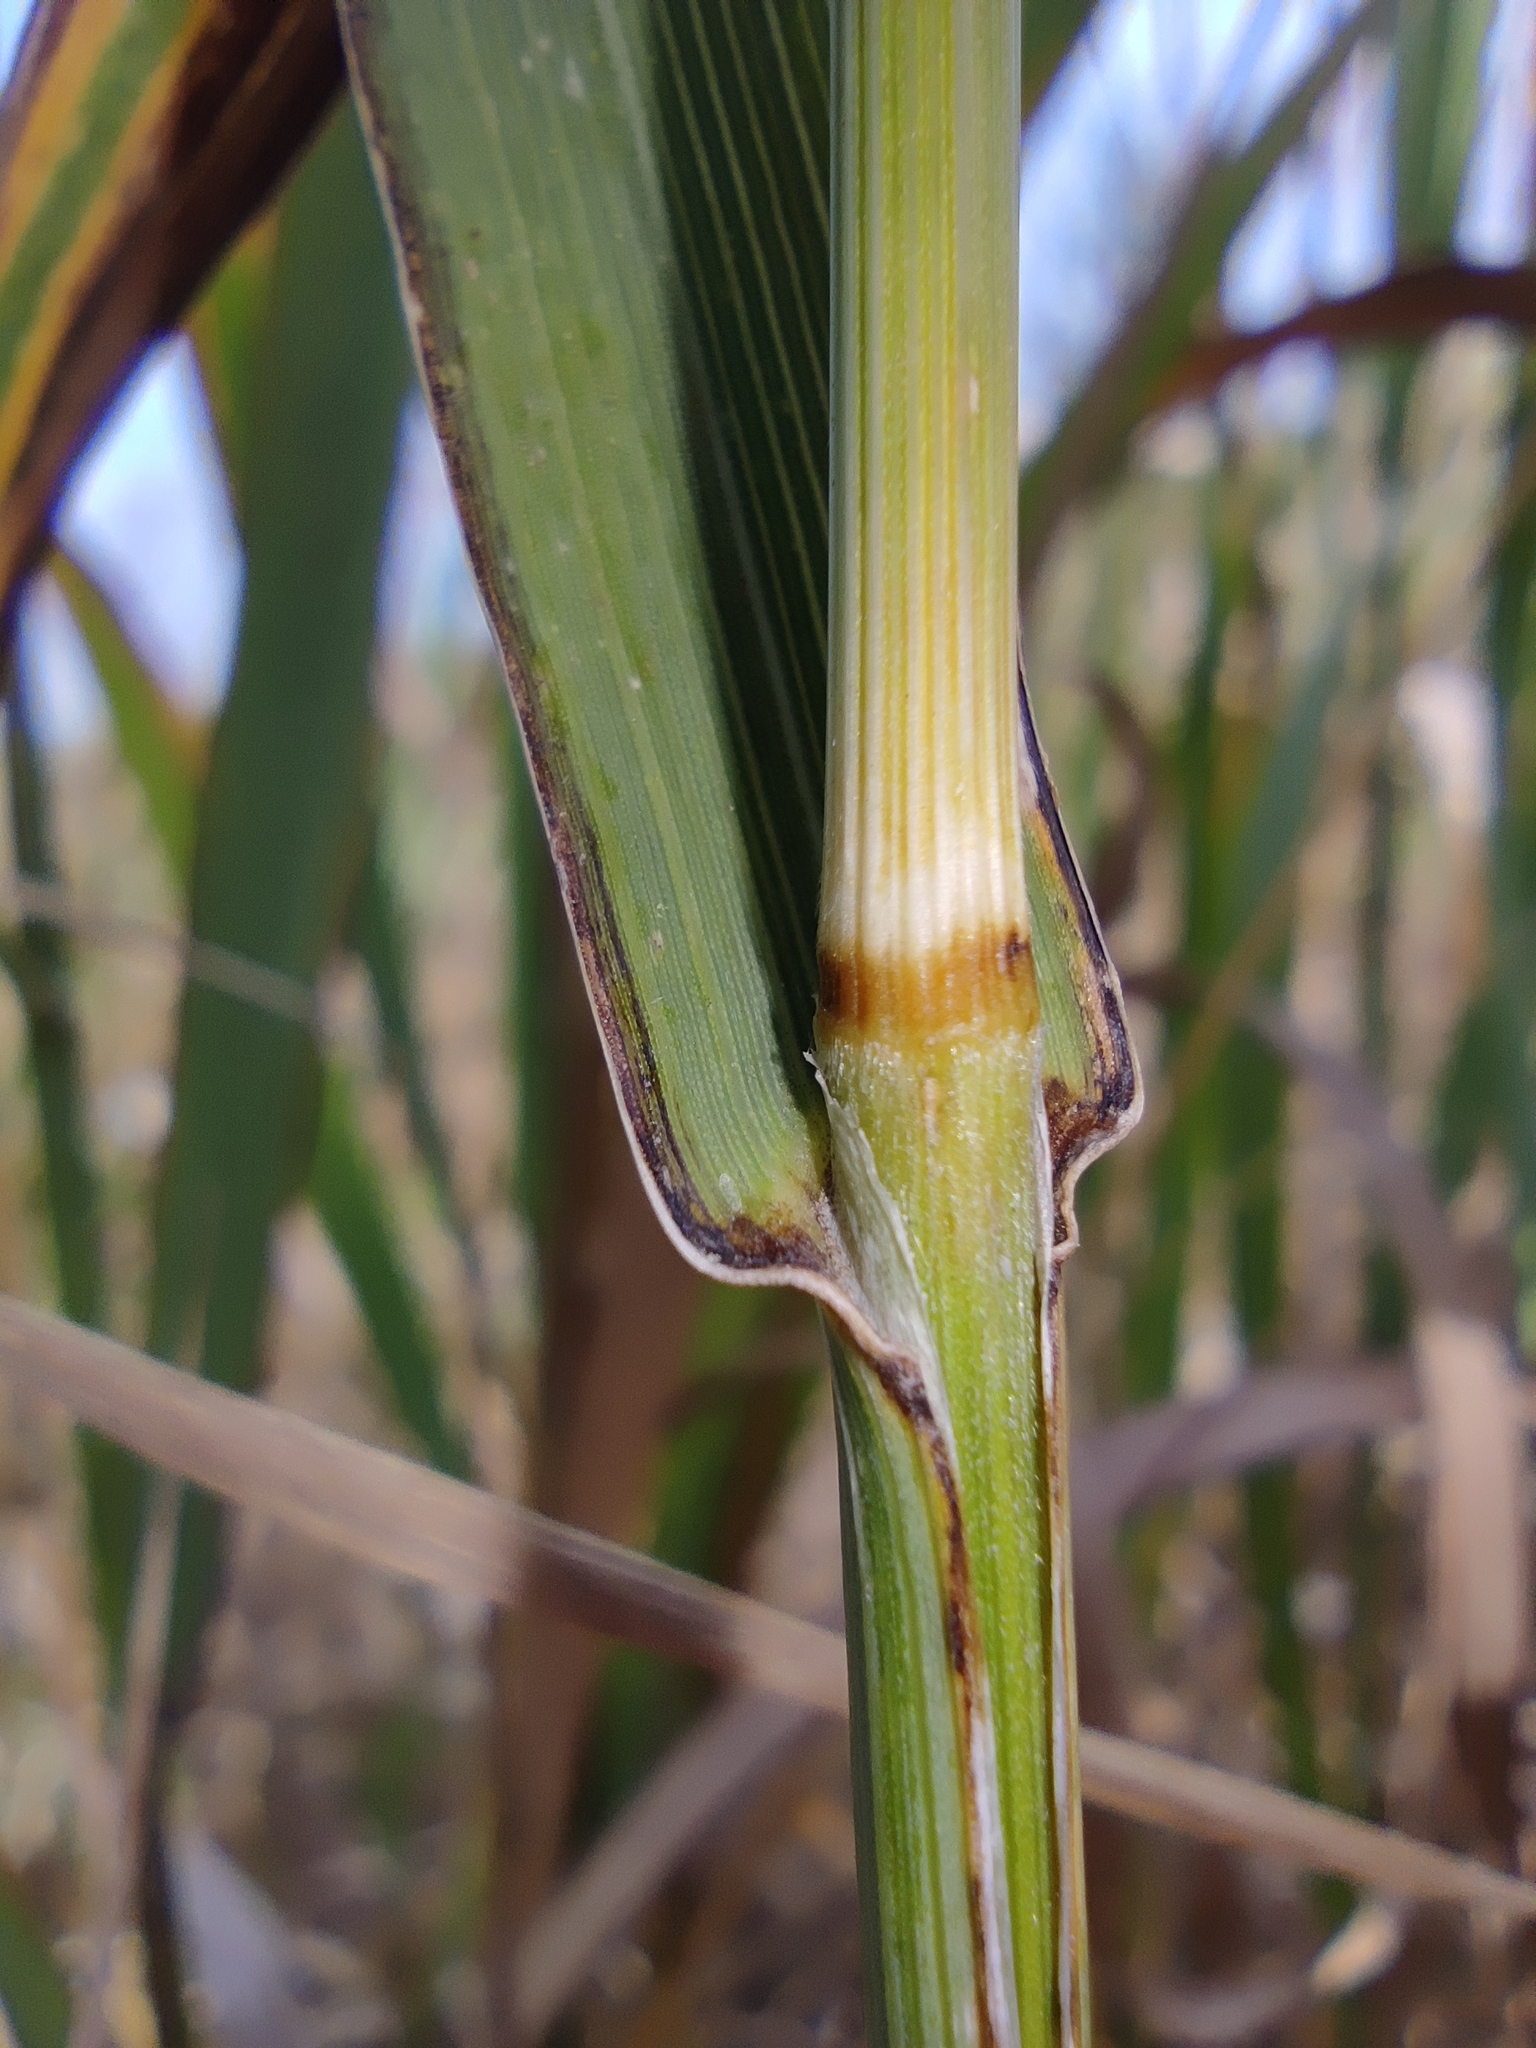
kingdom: Plantae
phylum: Tracheophyta
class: Liliopsida
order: Poales
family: Poaceae
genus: Bromus
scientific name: Bromus inermis
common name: Smooth brome
